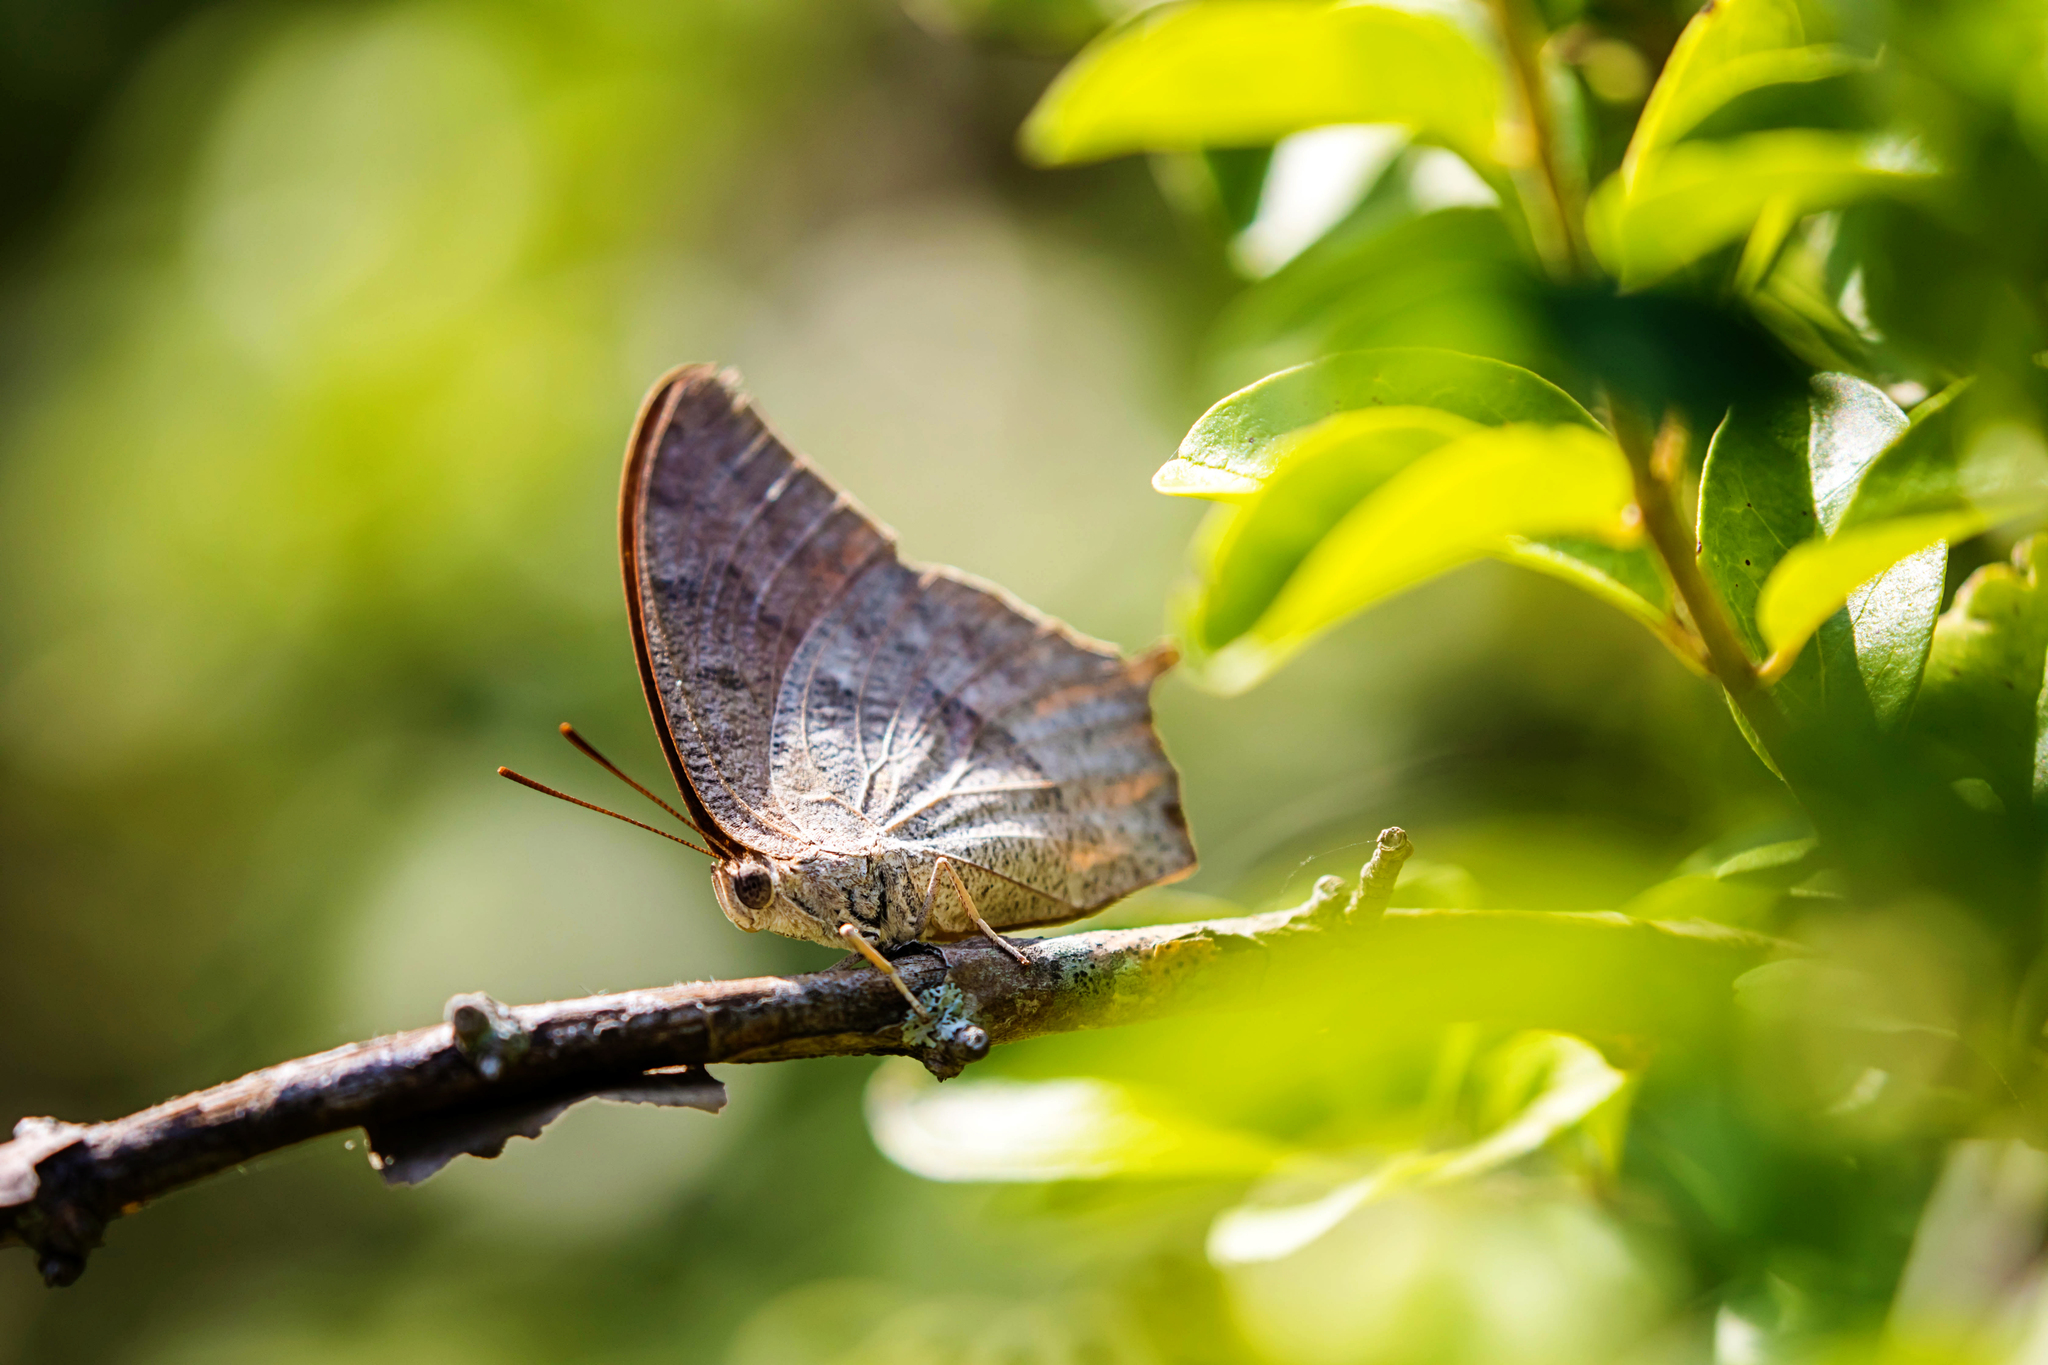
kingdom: Animalia
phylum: Arthropoda
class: Insecta
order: Lepidoptera
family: Nymphalidae
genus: Anaea
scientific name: Anaea andria
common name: Goatweed leafwing
